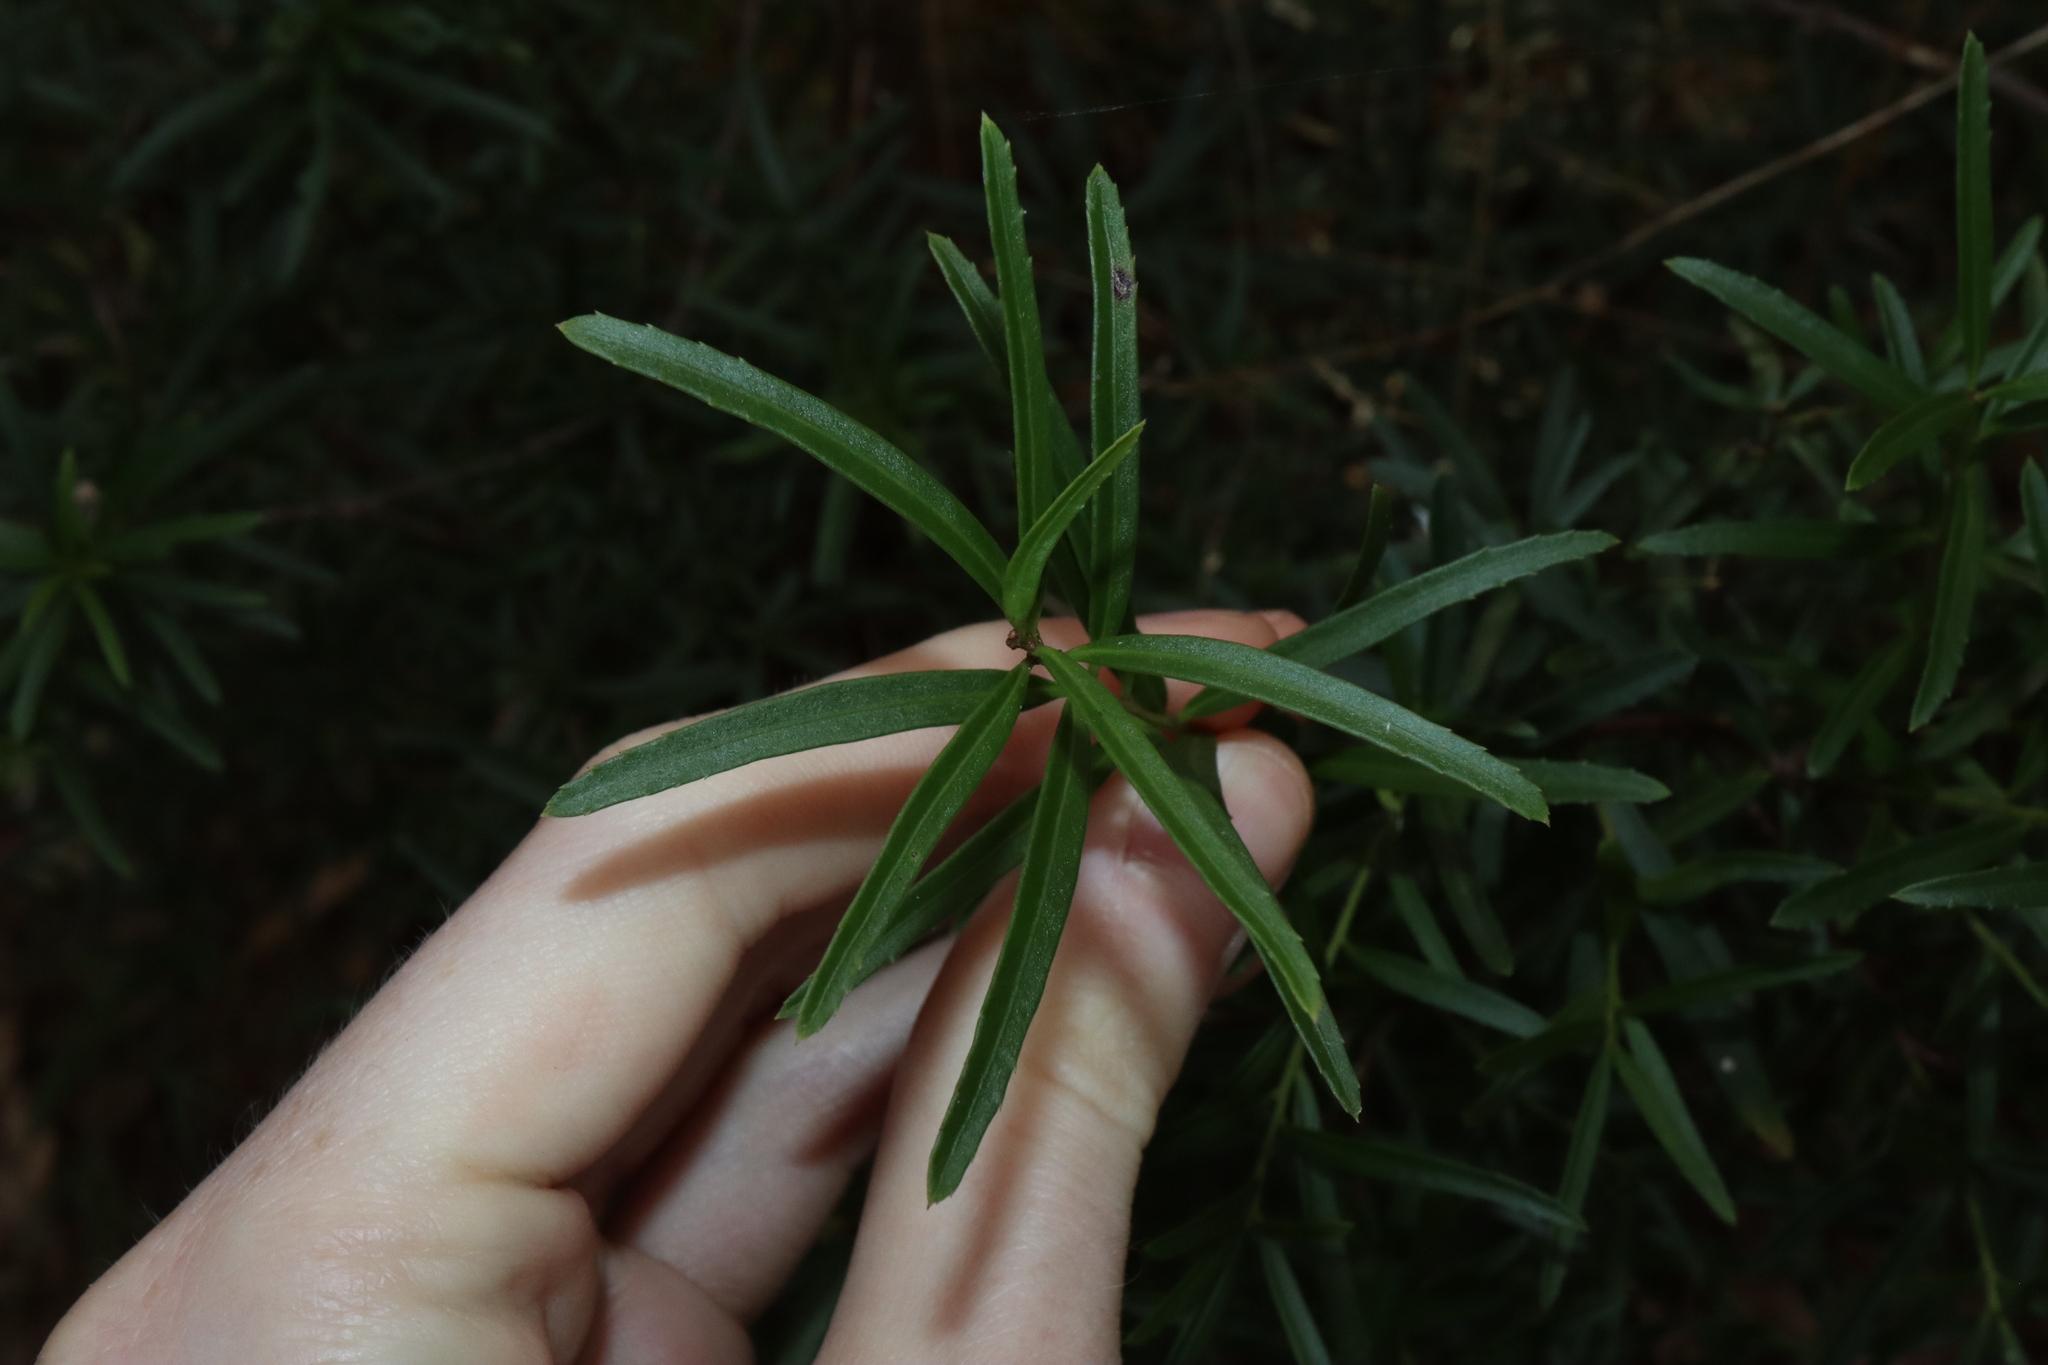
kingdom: Plantae
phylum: Tracheophyta
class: Magnoliopsida
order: Celastrales
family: Celastraceae
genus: Denhamia
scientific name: Denhamia silvestris
